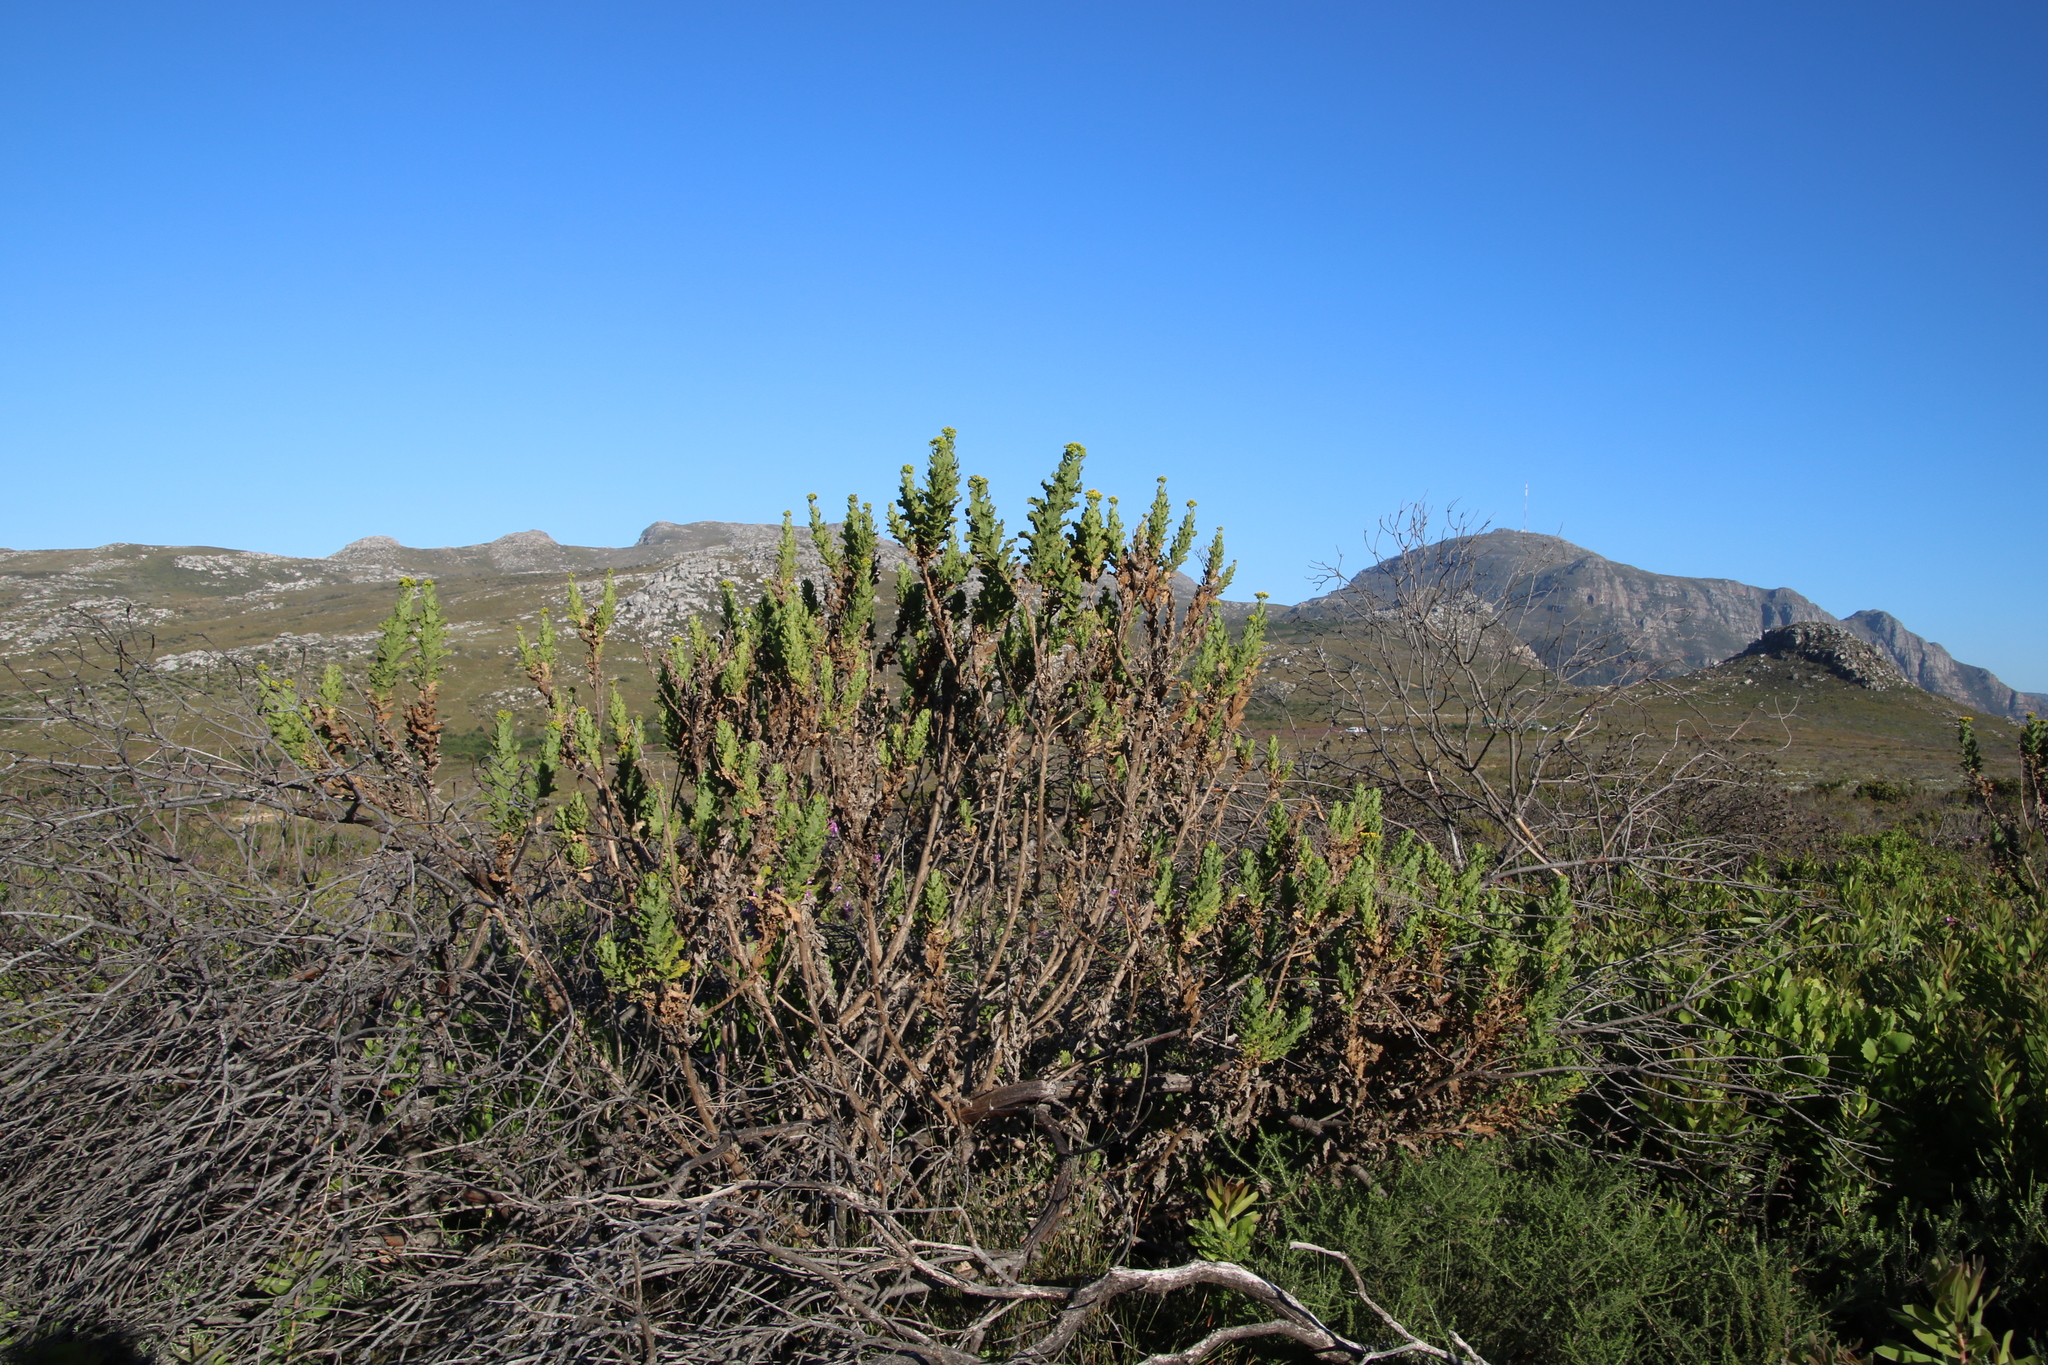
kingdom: Plantae
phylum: Tracheophyta
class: Magnoliopsida
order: Asterales
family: Asteraceae
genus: Senecio
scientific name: Senecio rigidus
